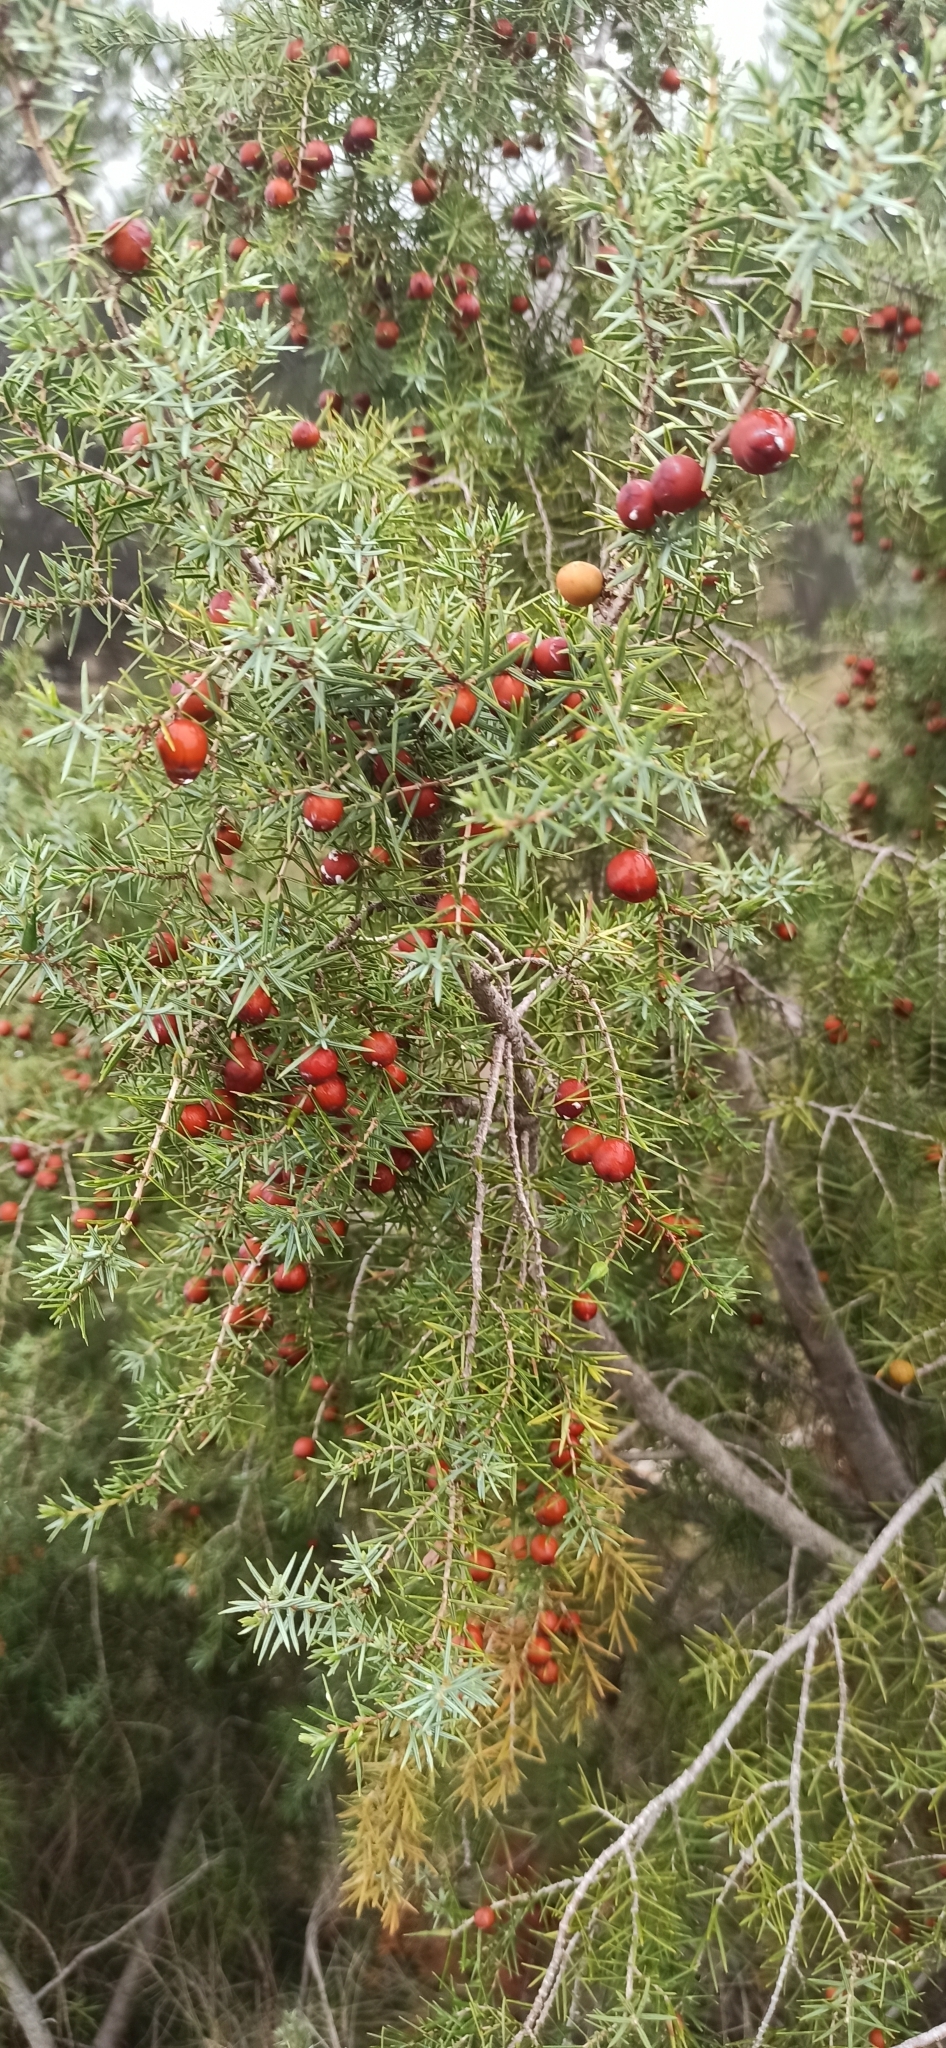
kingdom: Plantae
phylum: Tracheophyta
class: Pinopsida
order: Pinales
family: Cupressaceae
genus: Juniperus
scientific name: Juniperus oxycedrus
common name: Prickly juniper
